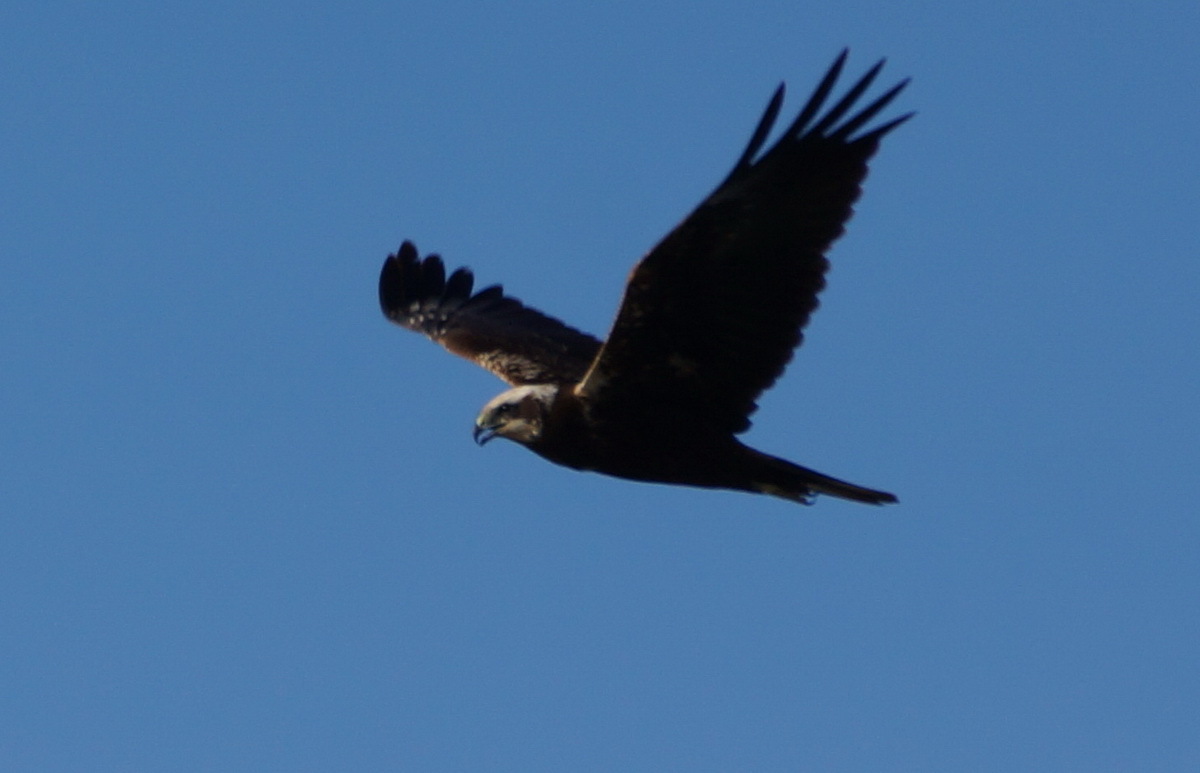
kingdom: Animalia
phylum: Chordata
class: Aves
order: Accipitriformes
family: Accipitridae
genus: Circus
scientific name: Circus aeruginosus
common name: Western marsh harrier
